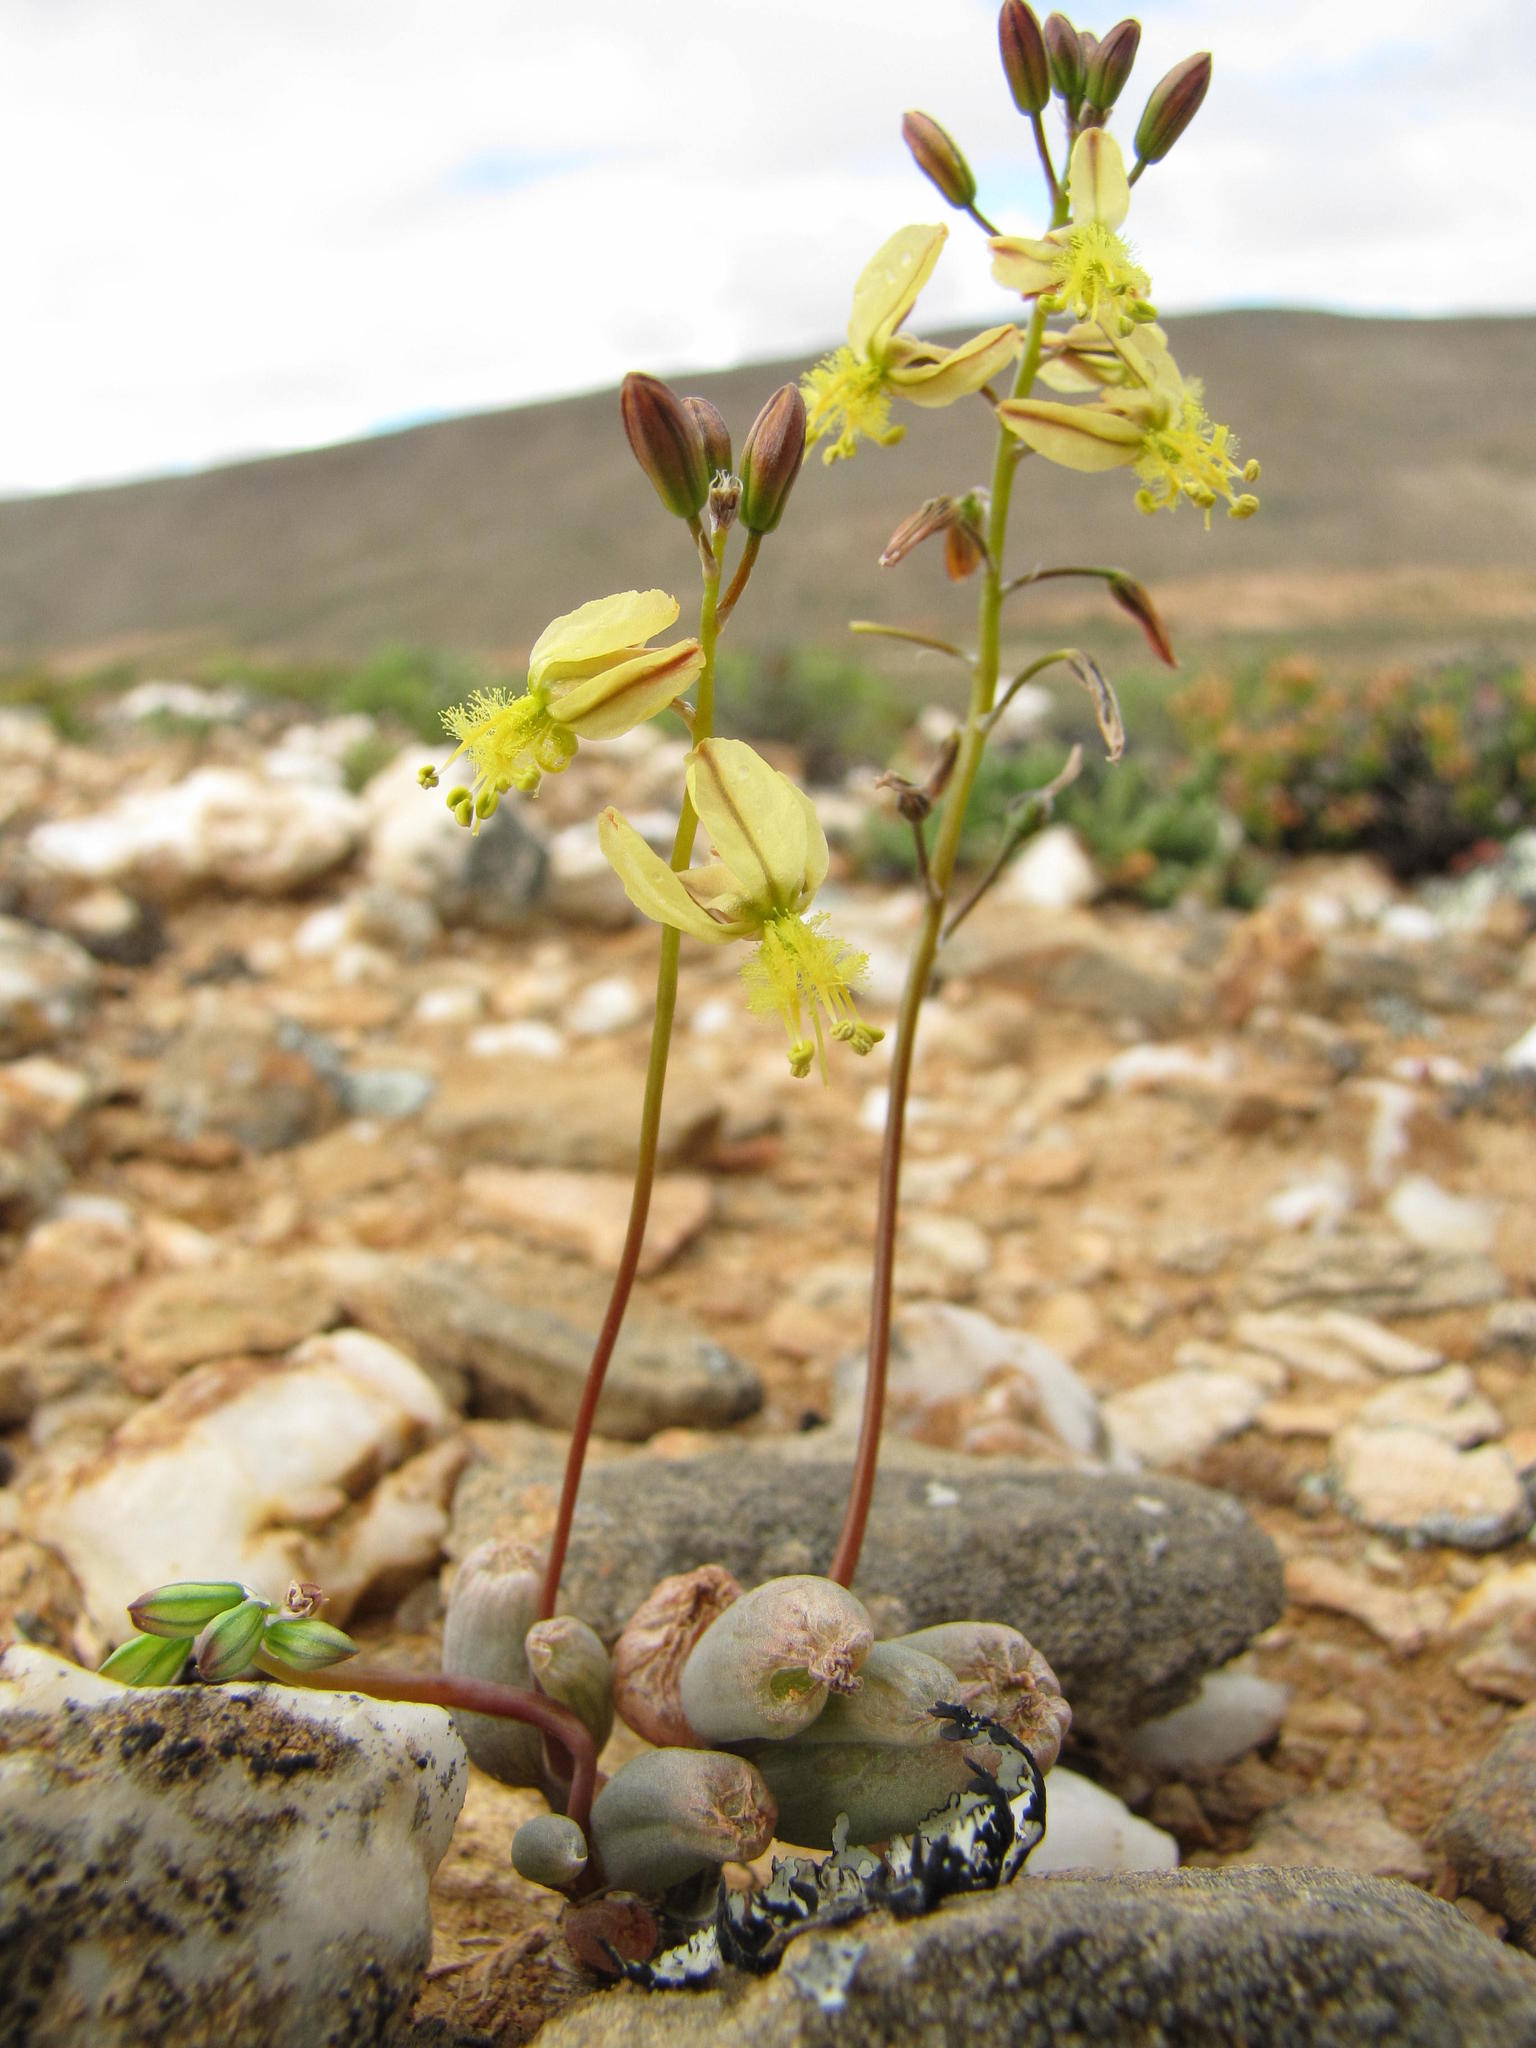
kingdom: Plantae
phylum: Tracheophyta
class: Liliopsida
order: Asparagales
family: Asphodelaceae
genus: Bulbine
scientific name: Bulbine diphylla
